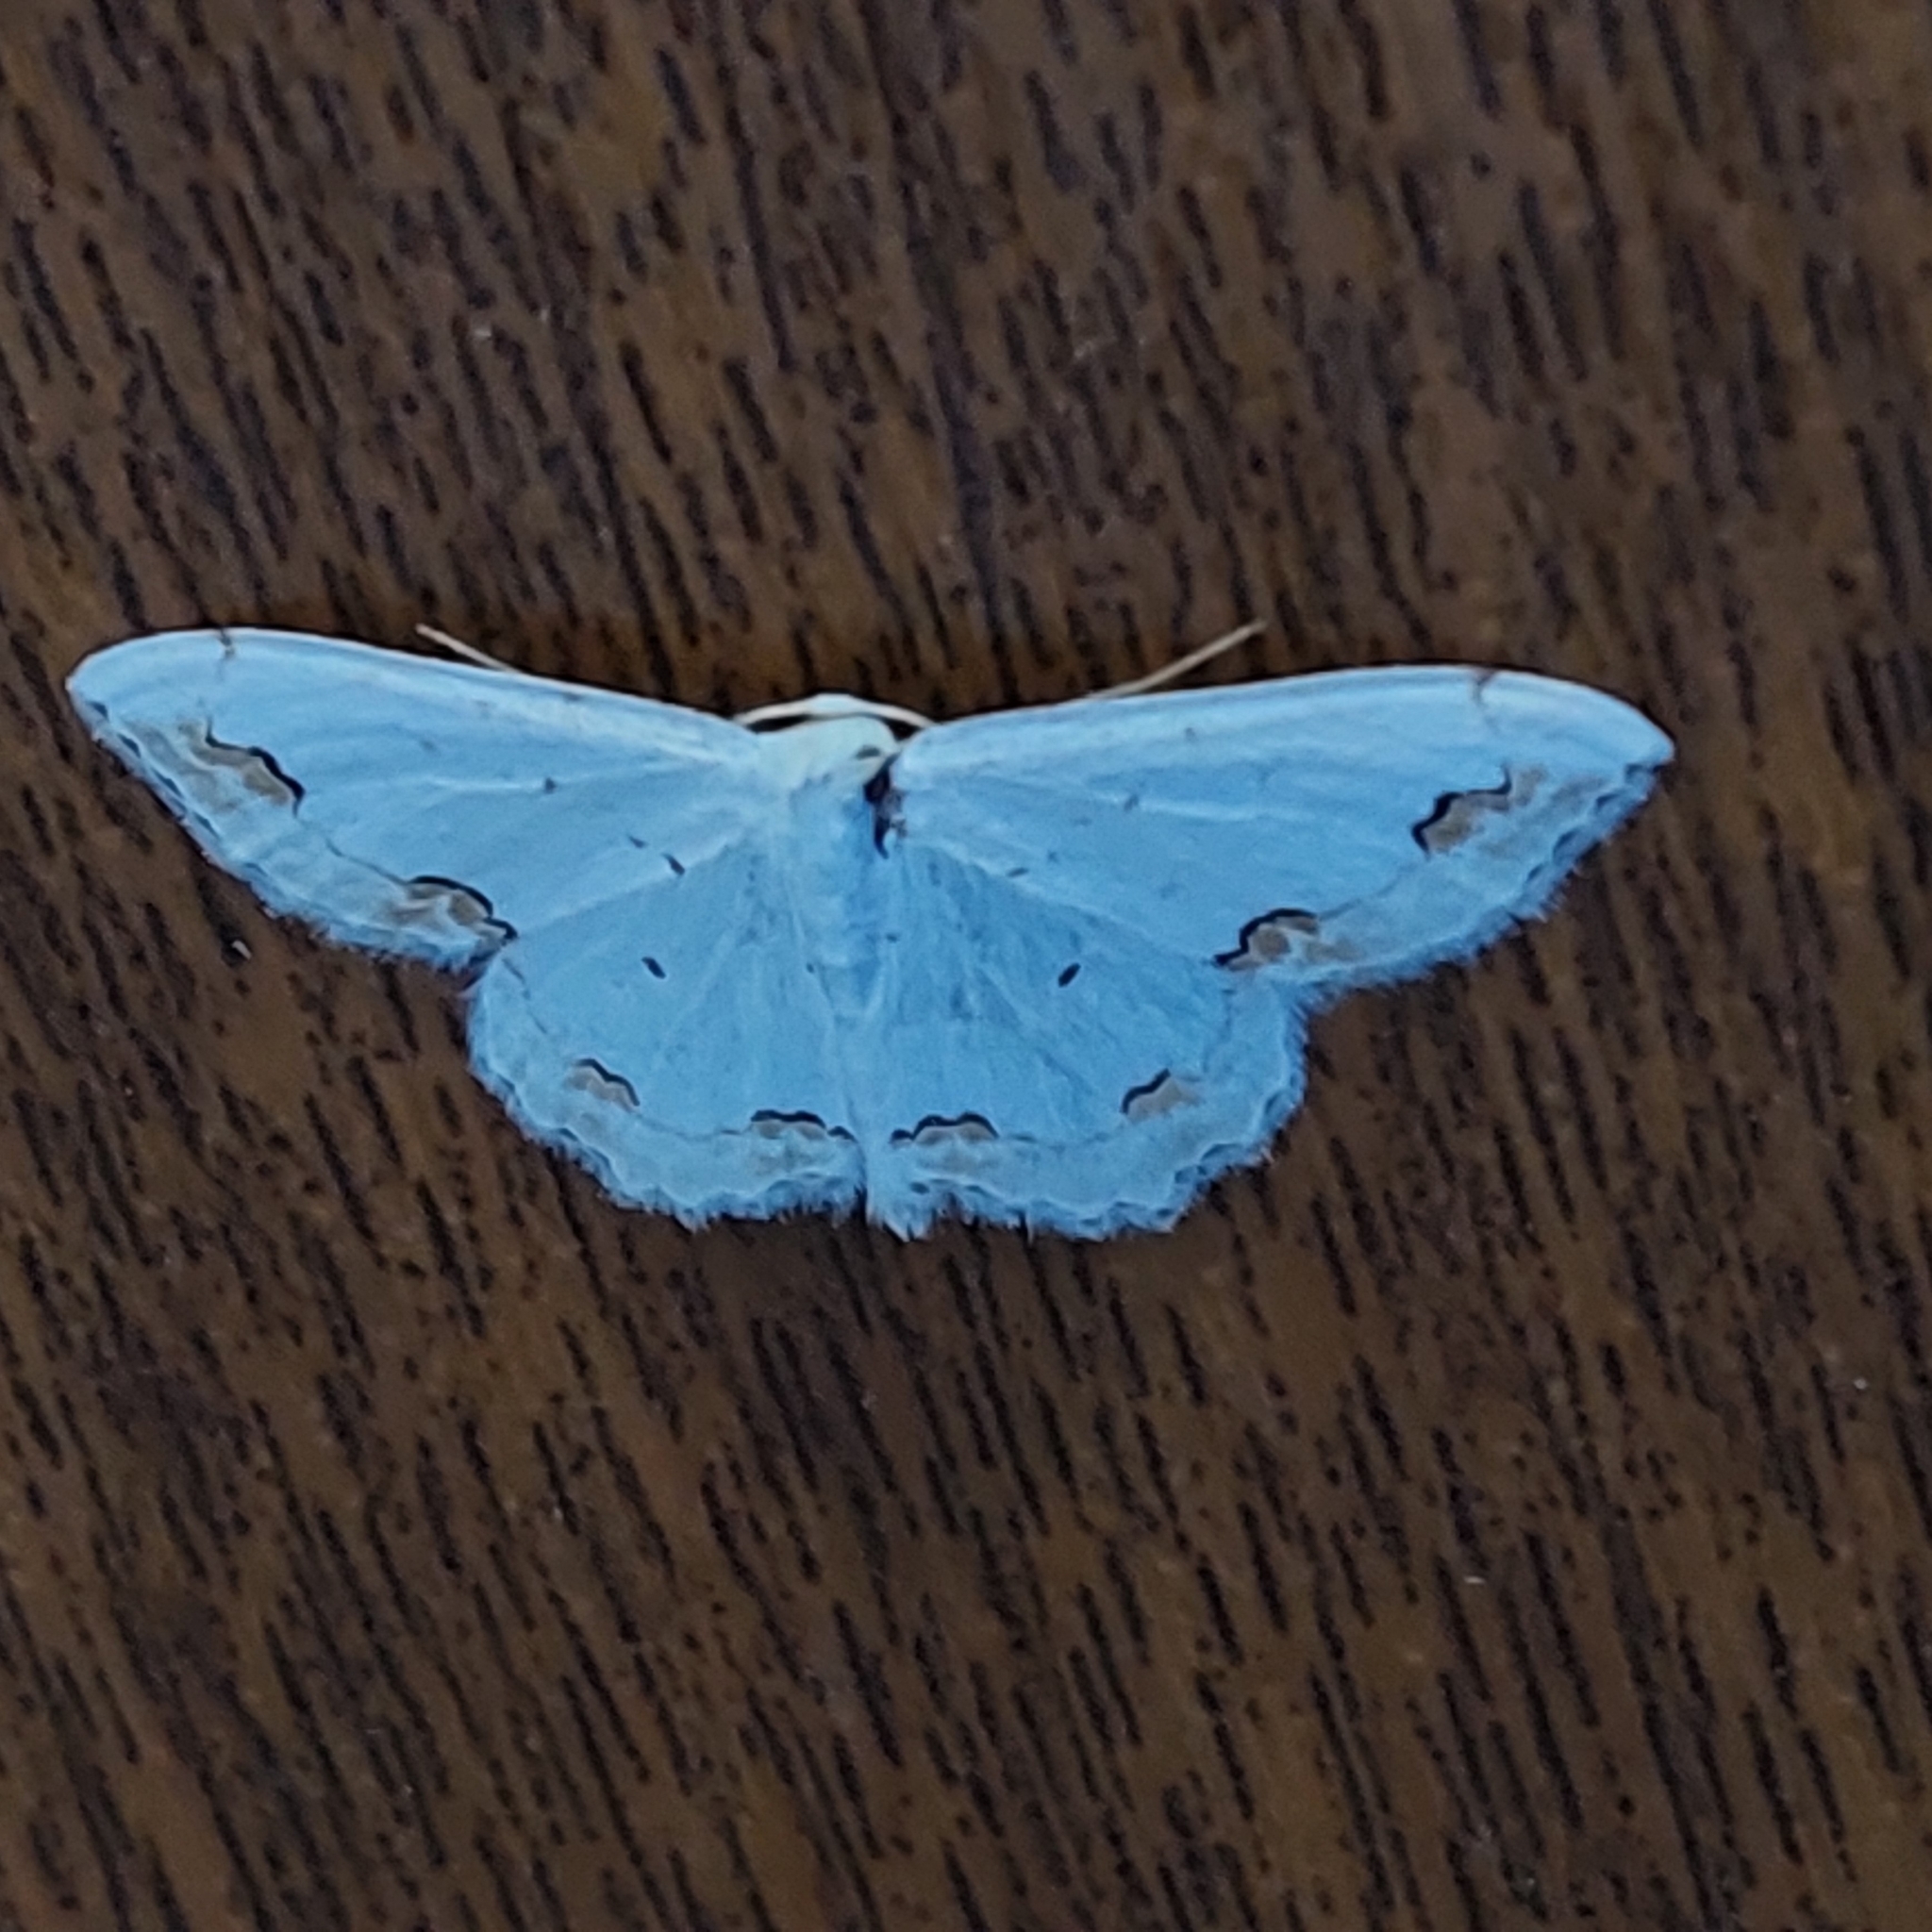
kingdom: Animalia
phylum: Arthropoda
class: Insecta
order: Lepidoptera
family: Geometridae
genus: Scopula
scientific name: Scopula ornata
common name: Lace border
